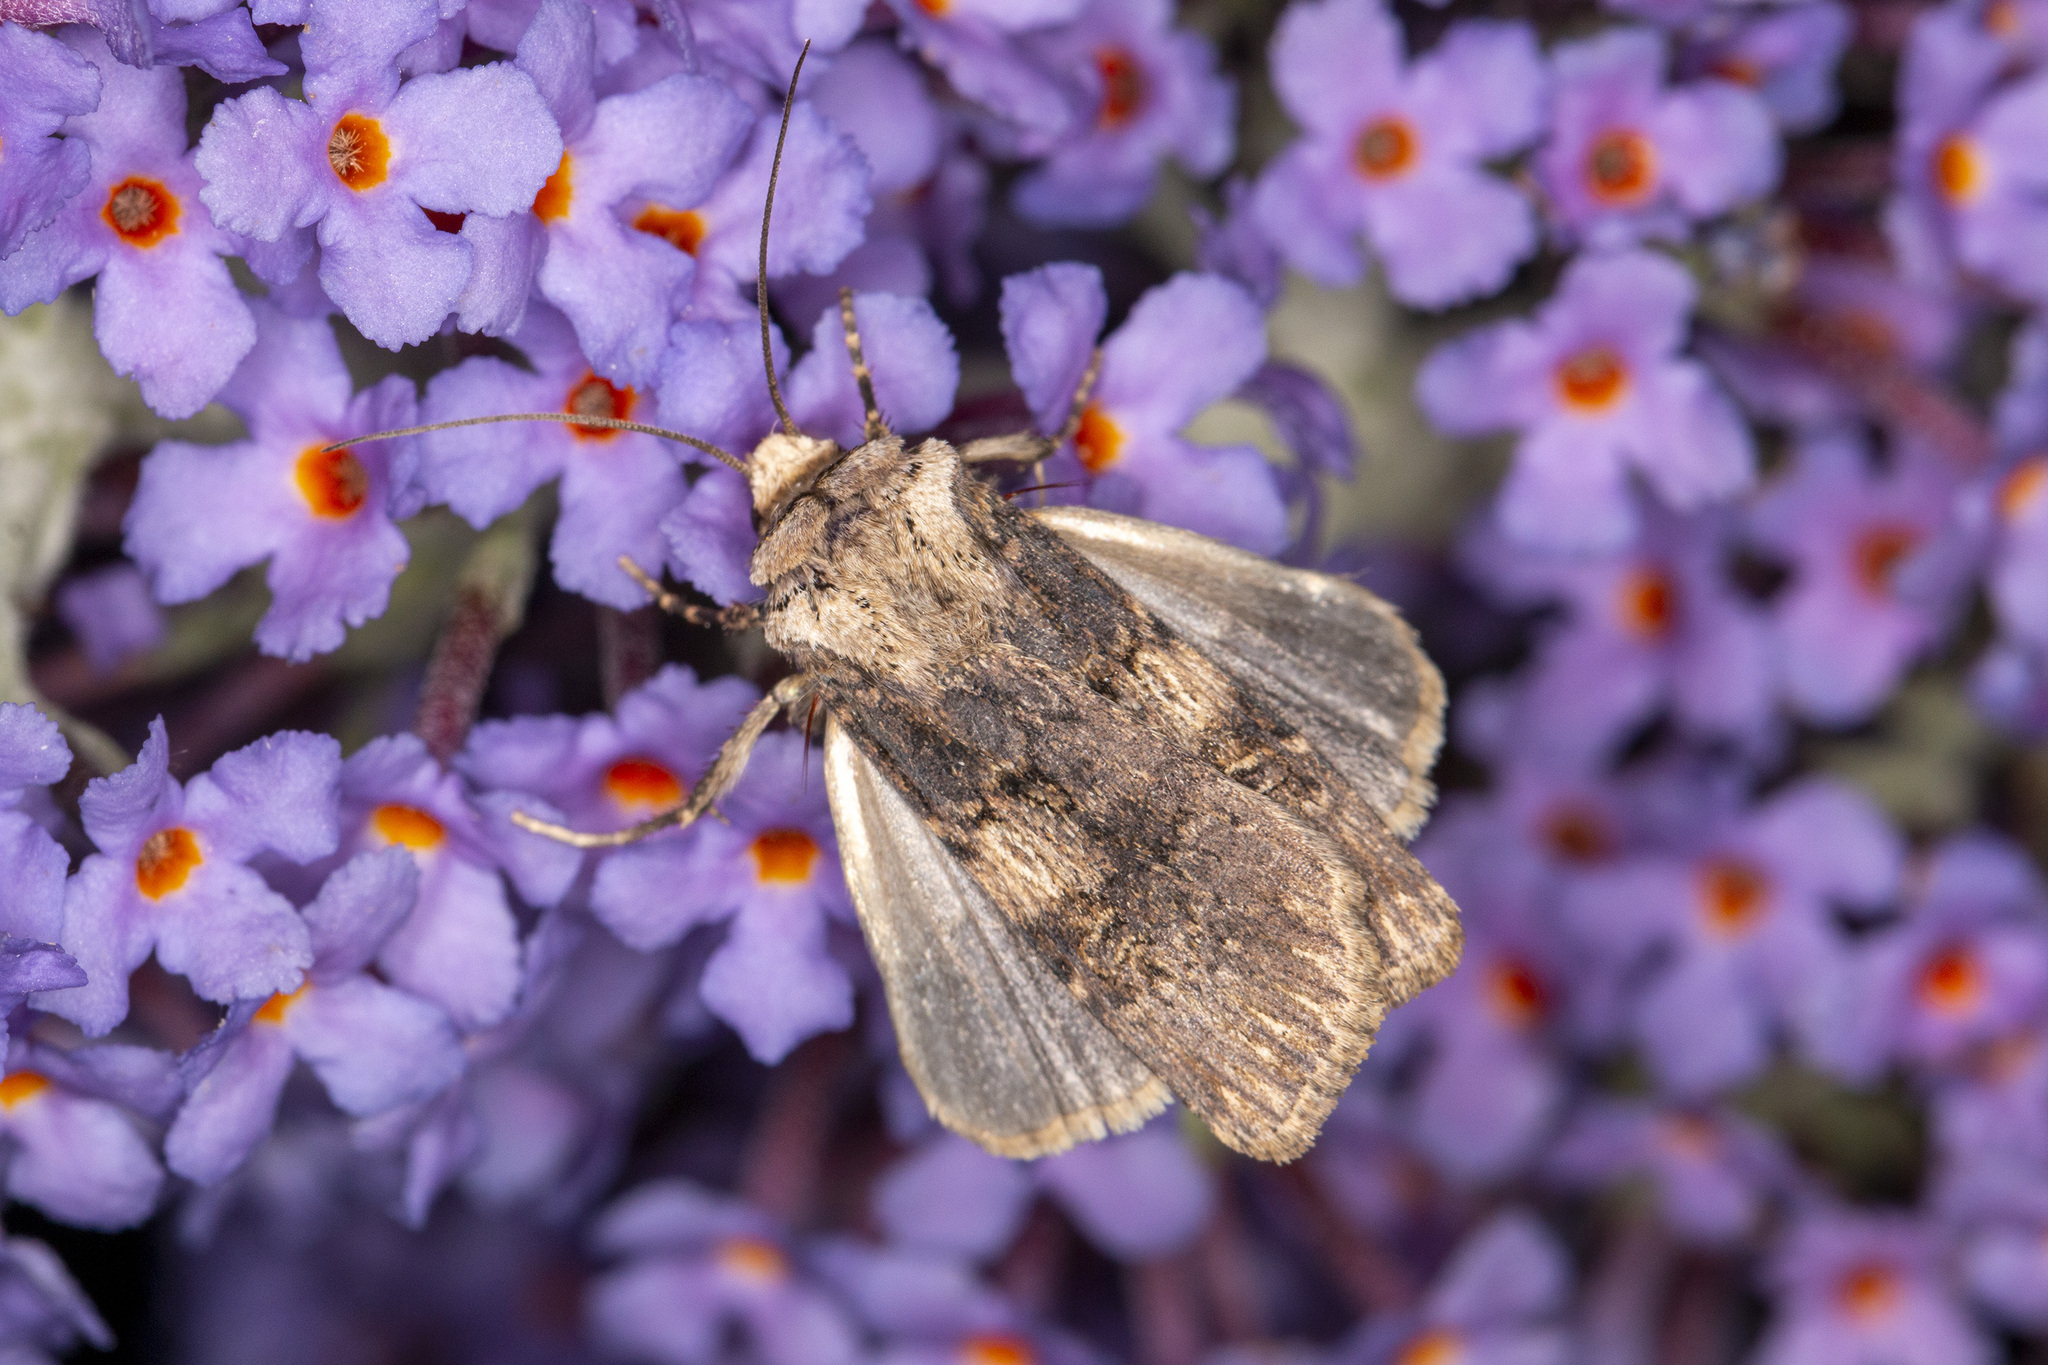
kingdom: Animalia
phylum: Arthropoda
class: Insecta
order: Lepidoptera
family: Noctuidae
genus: Agrotis
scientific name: Agrotis puta
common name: Shuttle-shaped dart
